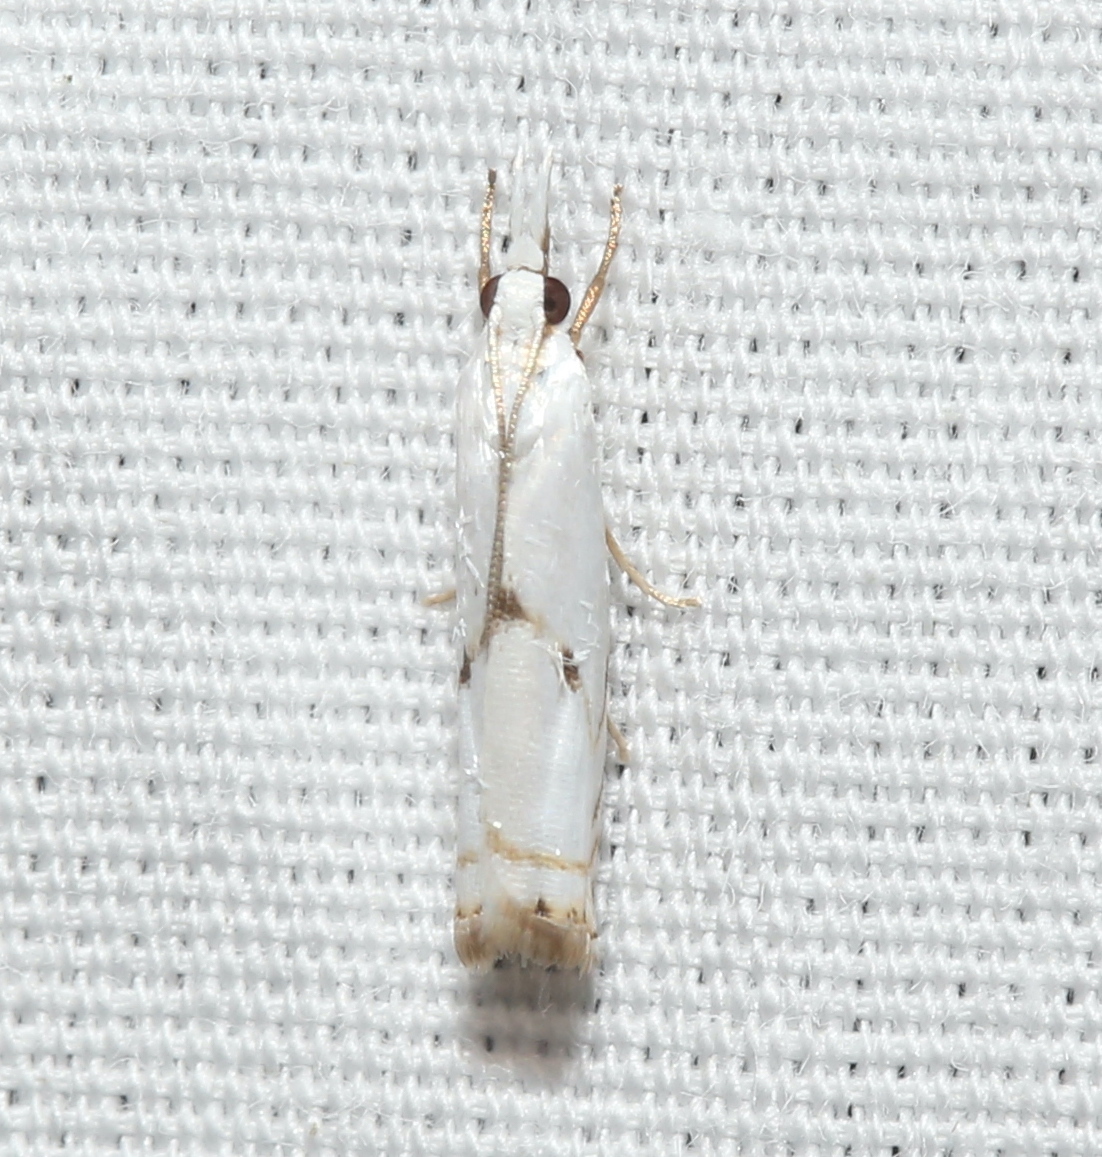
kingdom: Animalia
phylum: Arthropoda
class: Insecta
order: Lepidoptera
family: Crambidae
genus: Microcrambus
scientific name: Microcrambus biguttellus
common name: Gold-stripe grass-veneer moth
